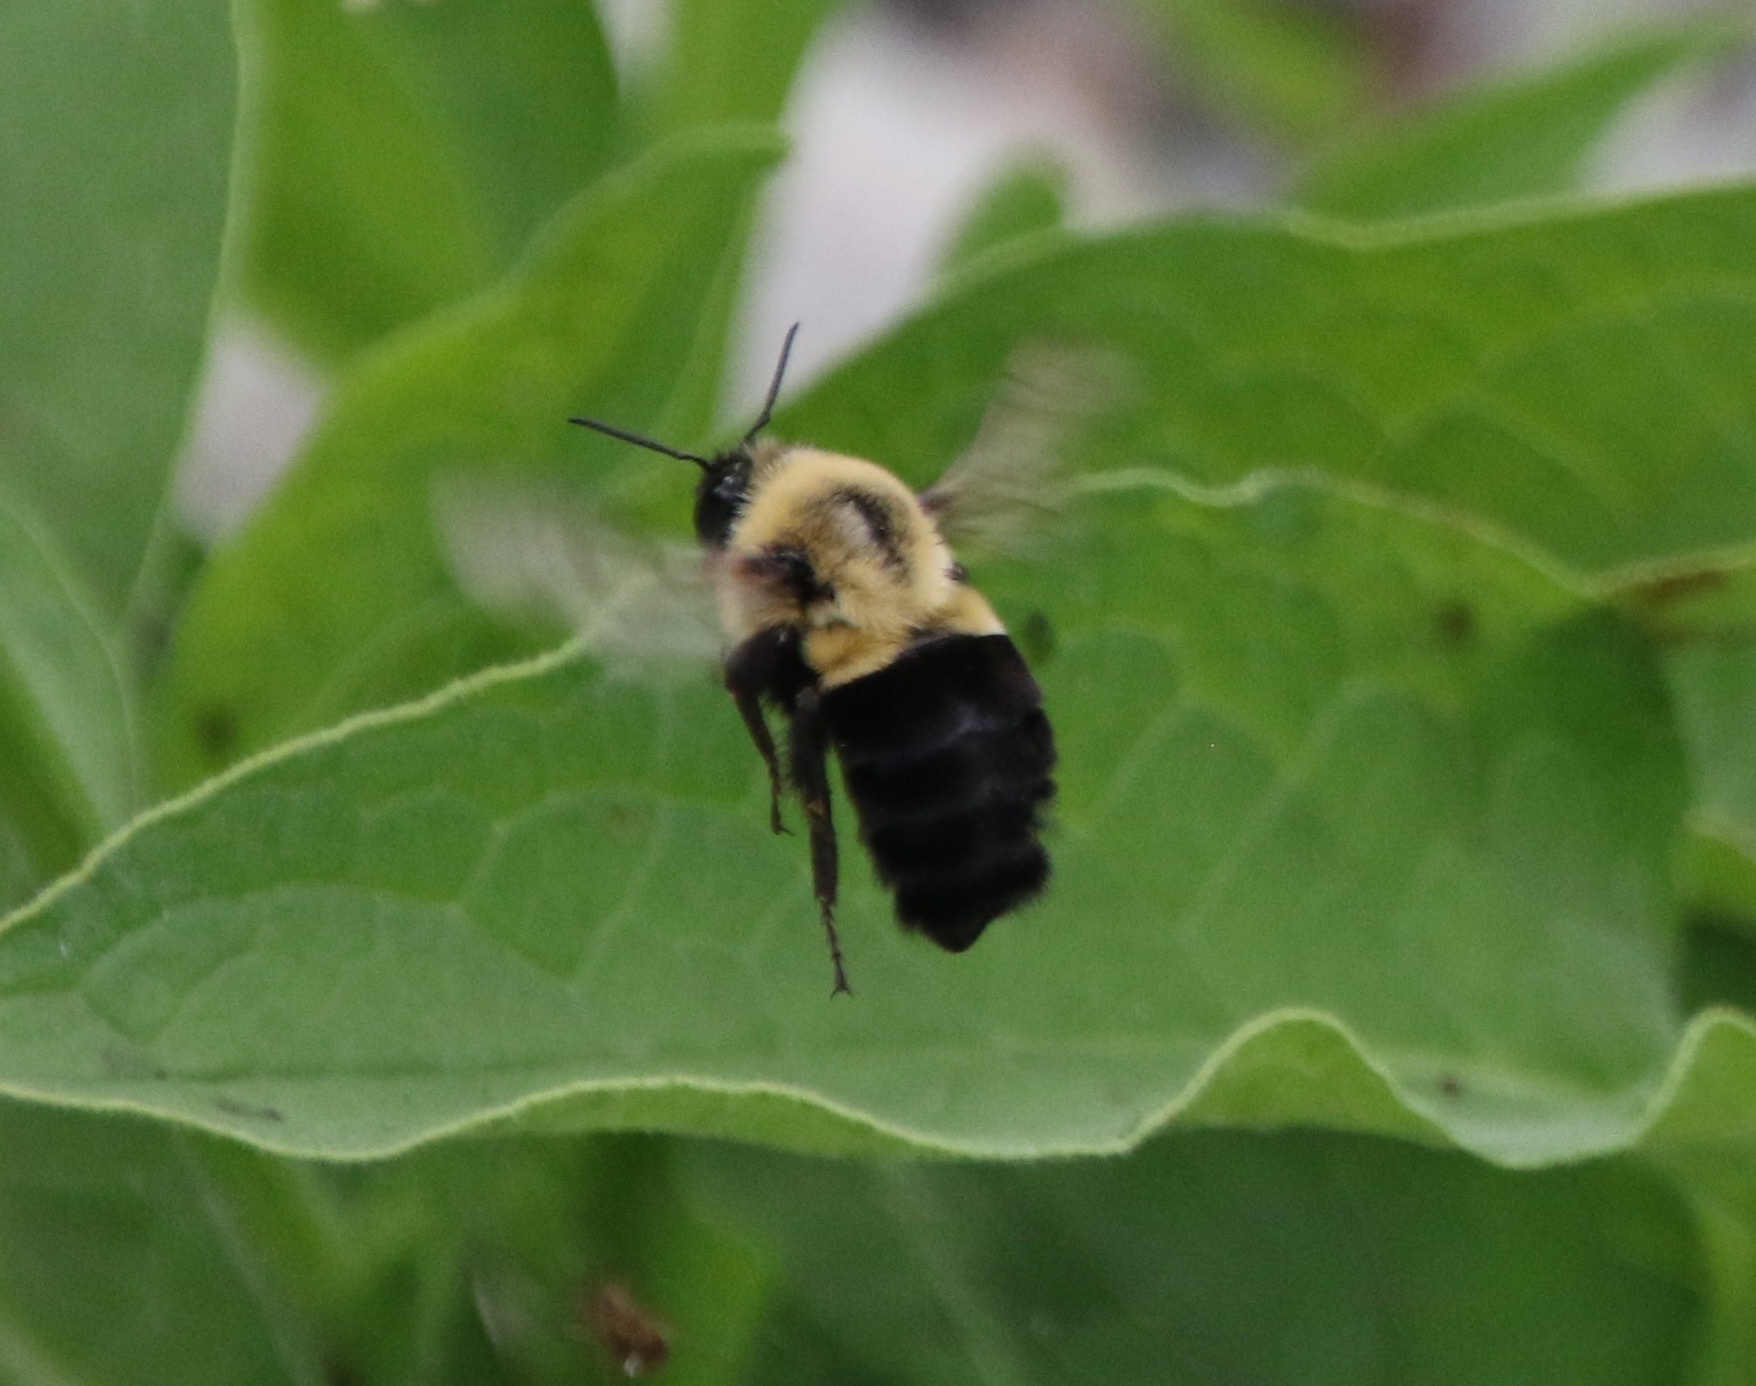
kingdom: Animalia
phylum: Arthropoda
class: Insecta
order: Hymenoptera
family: Apidae
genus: Bombus
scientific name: Bombus impatiens
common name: Common eastern bumble bee
